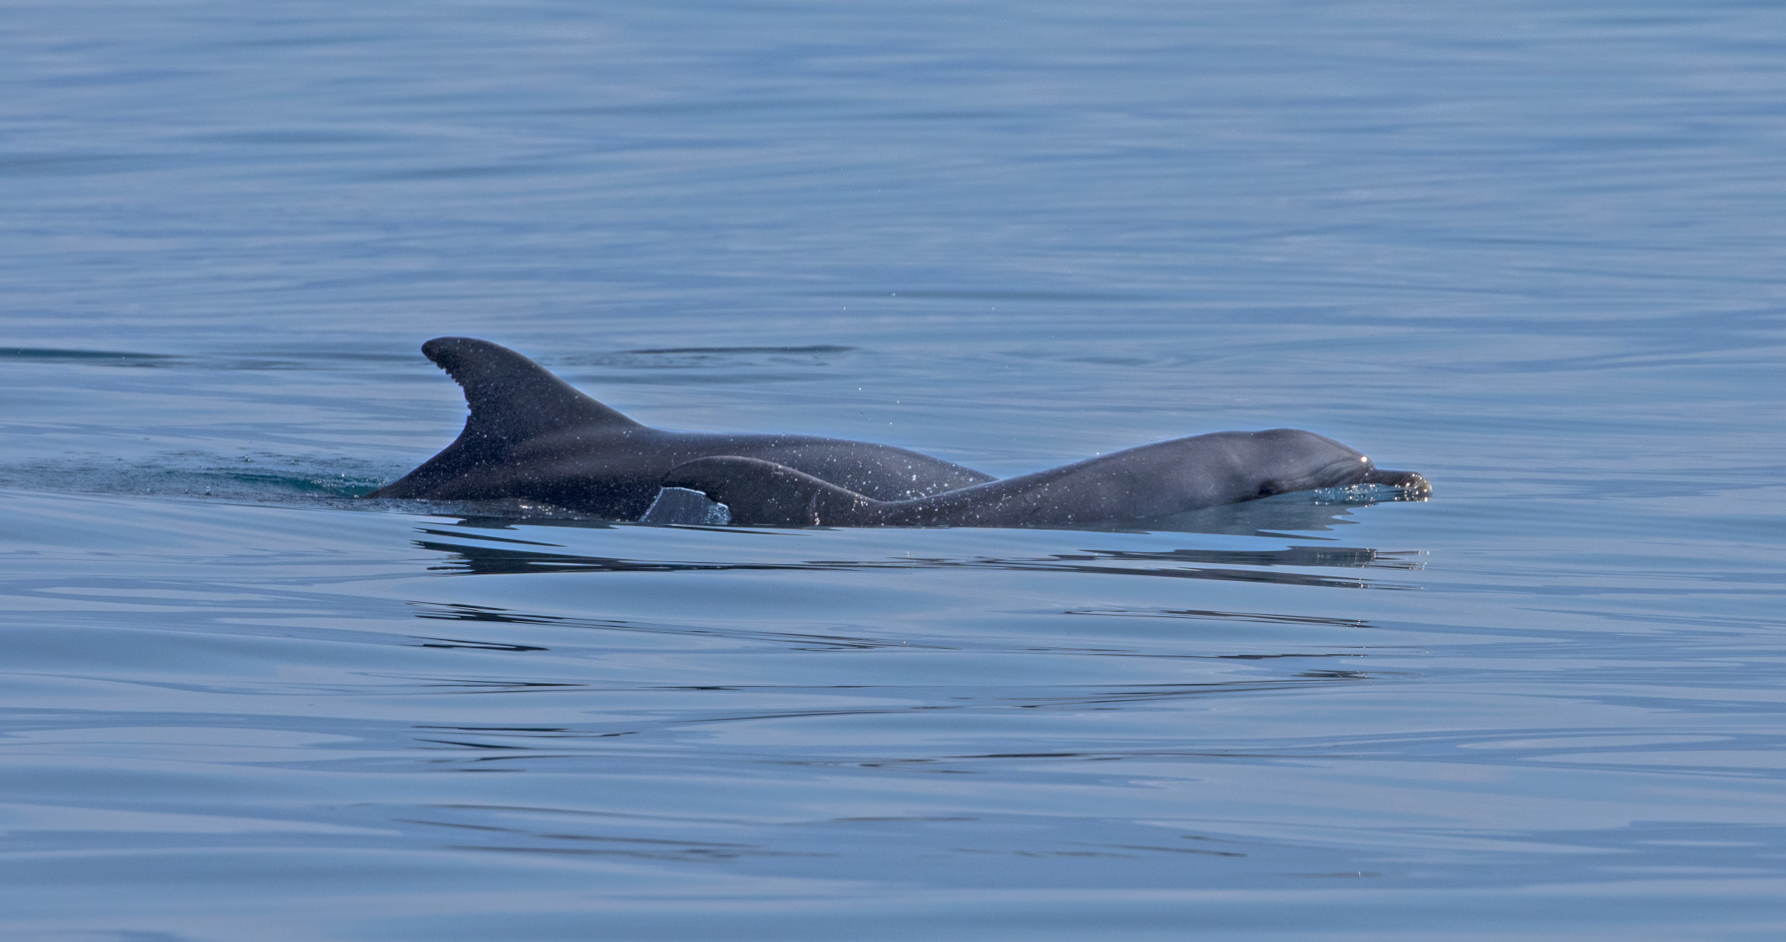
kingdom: Animalia
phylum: Chordata
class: Mammalia
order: Cetacea
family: Delphinidae
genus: Tursiops
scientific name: Tursiops truncatus
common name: Bottlenose dolphin
